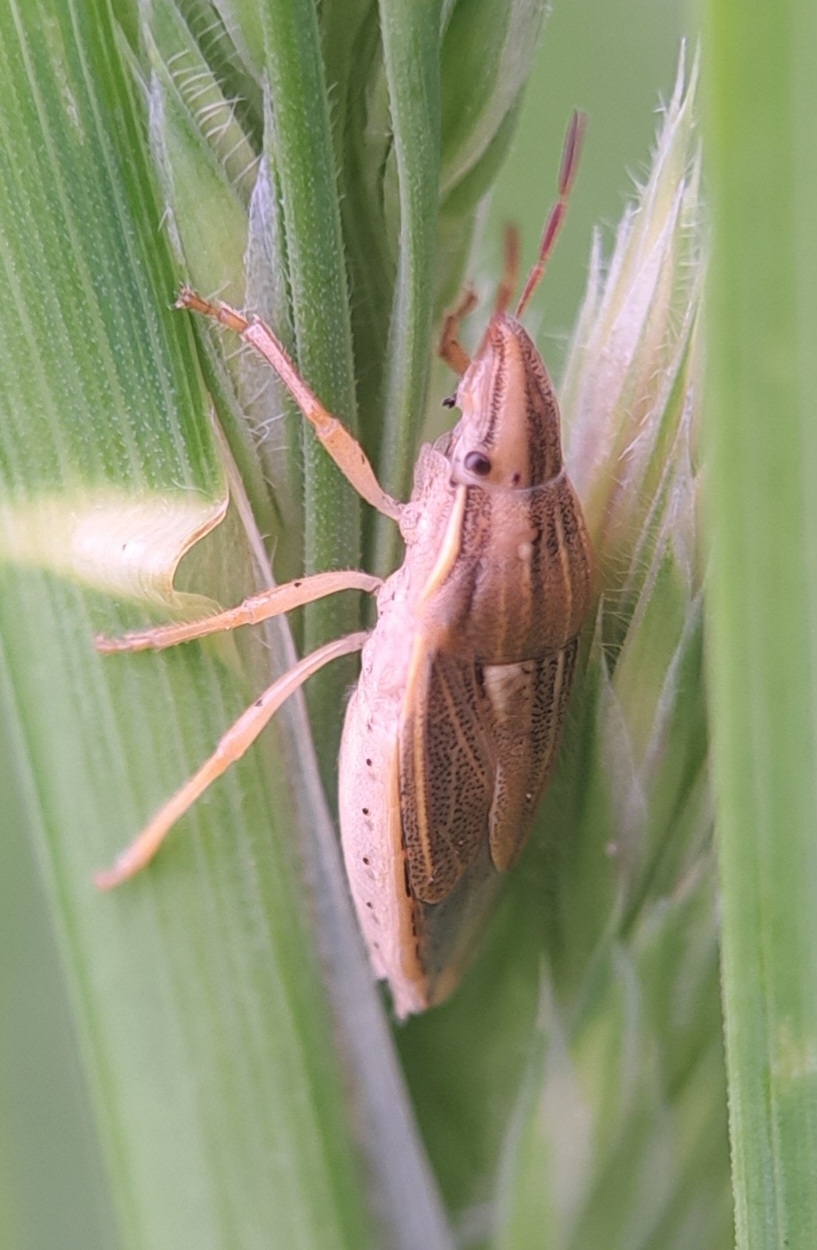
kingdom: Animalia
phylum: Arthropoda
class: Insecta
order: Hemiptera
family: Pentatomidae
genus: Aelia
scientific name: Aelia acuminata
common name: Bishop's mitre
